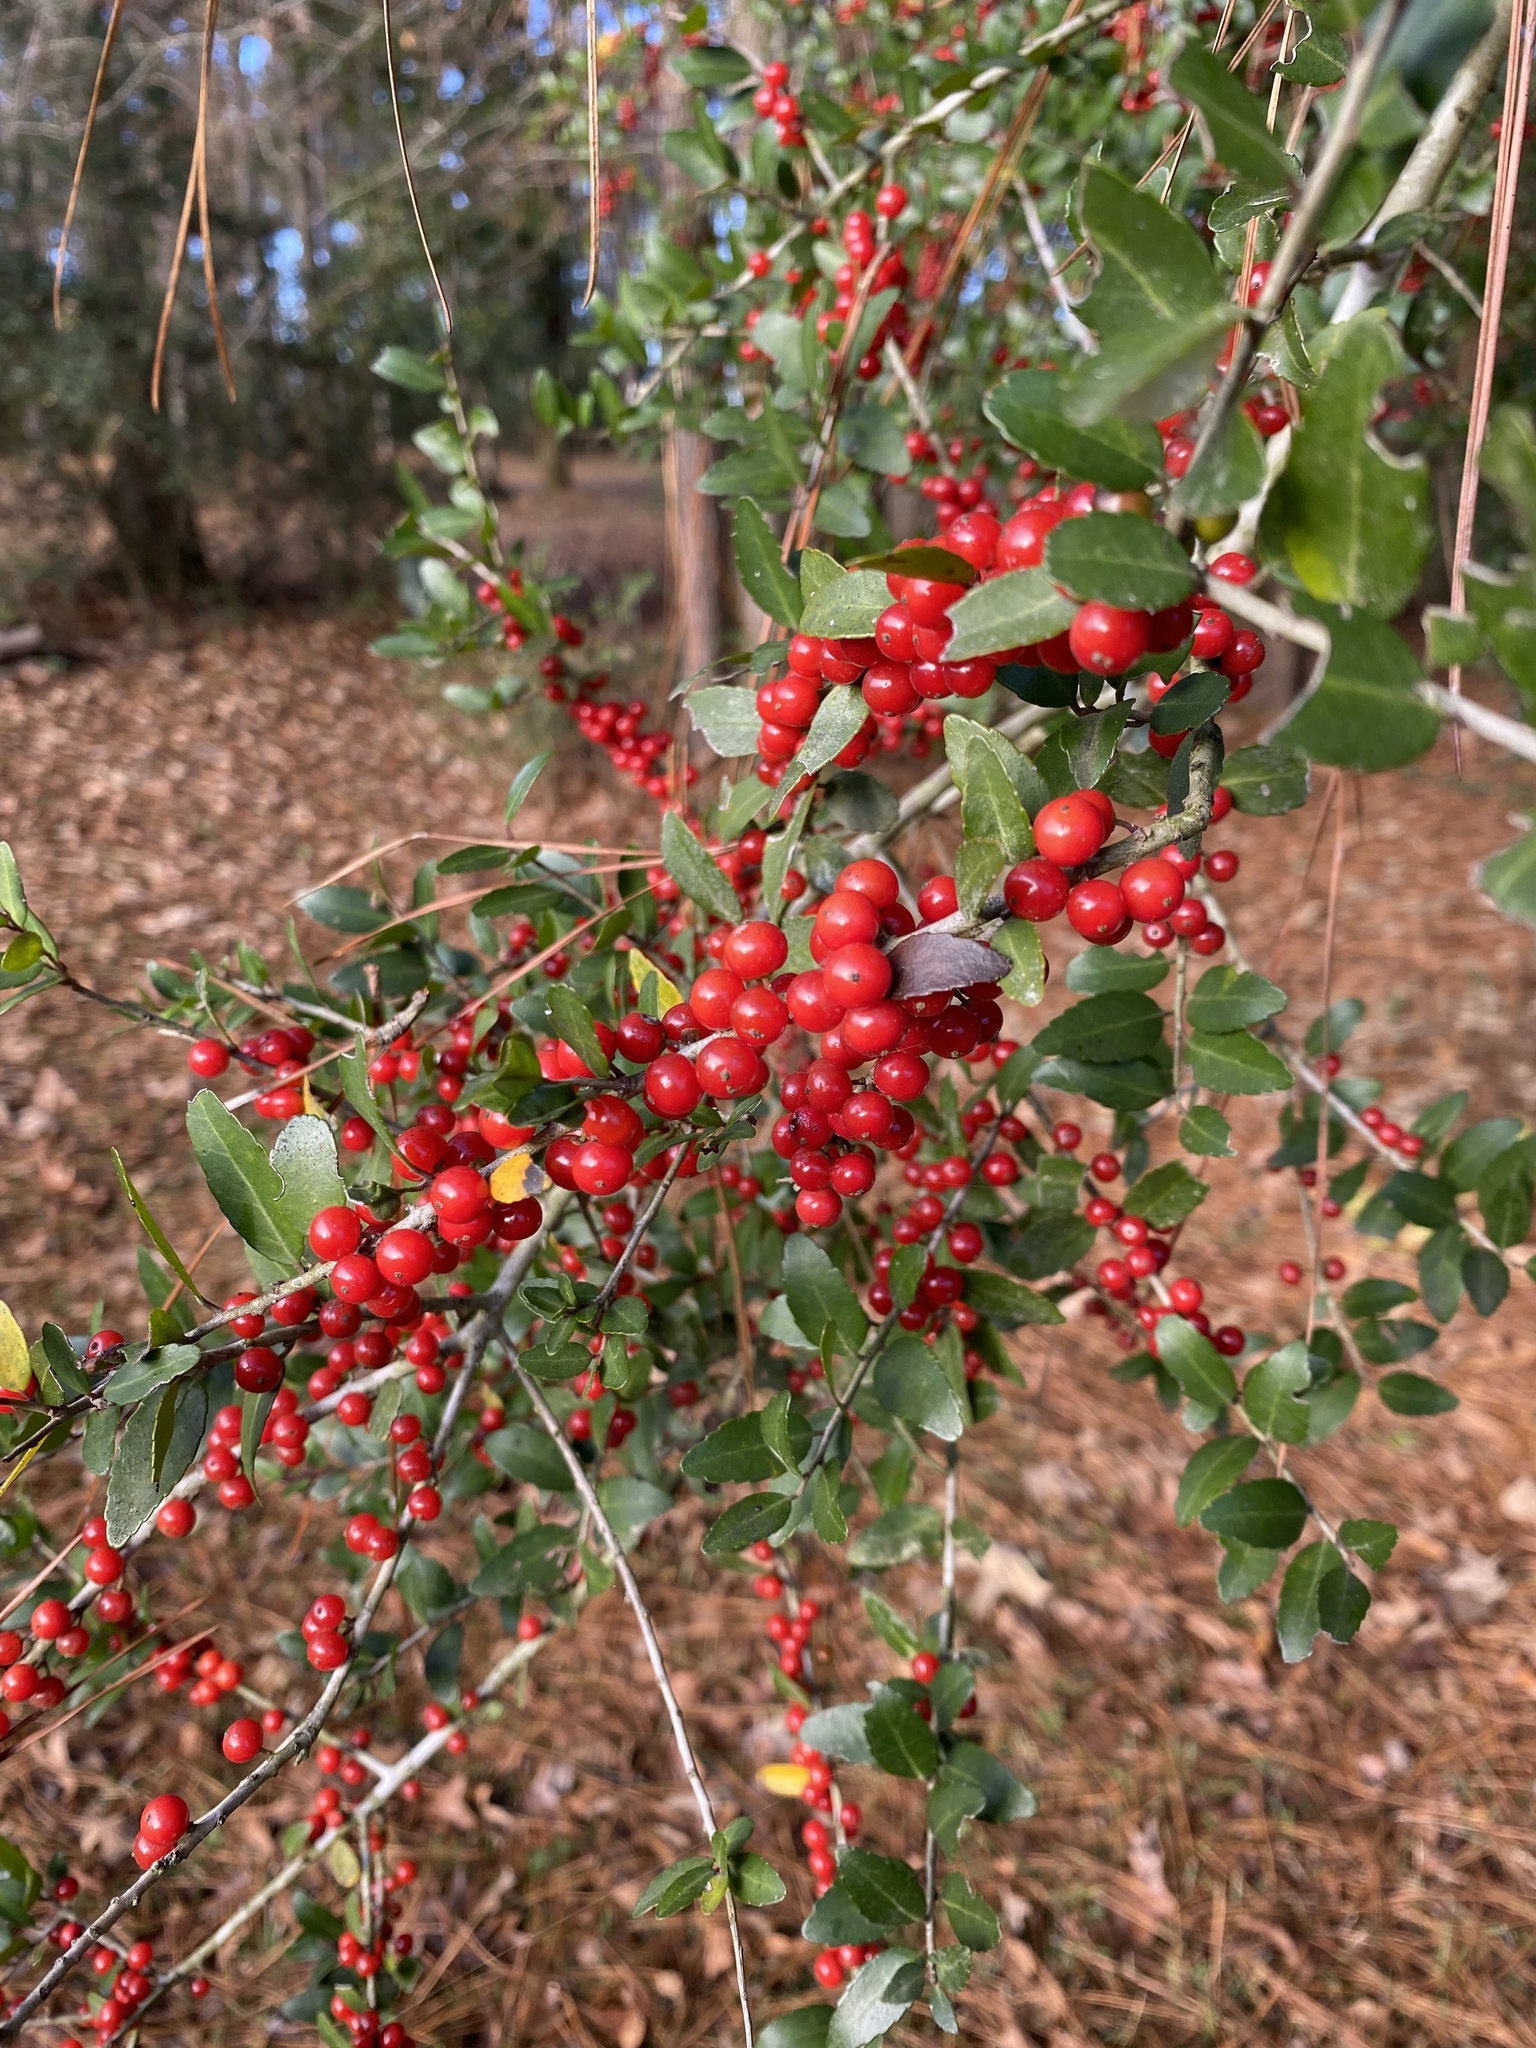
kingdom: Plantae
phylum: Tracheophyta
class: Magnoliopsida
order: Aquifoliales
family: Aquifoliaceae
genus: Ilex
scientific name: Ilex vomitoria
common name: Yaupon holly
